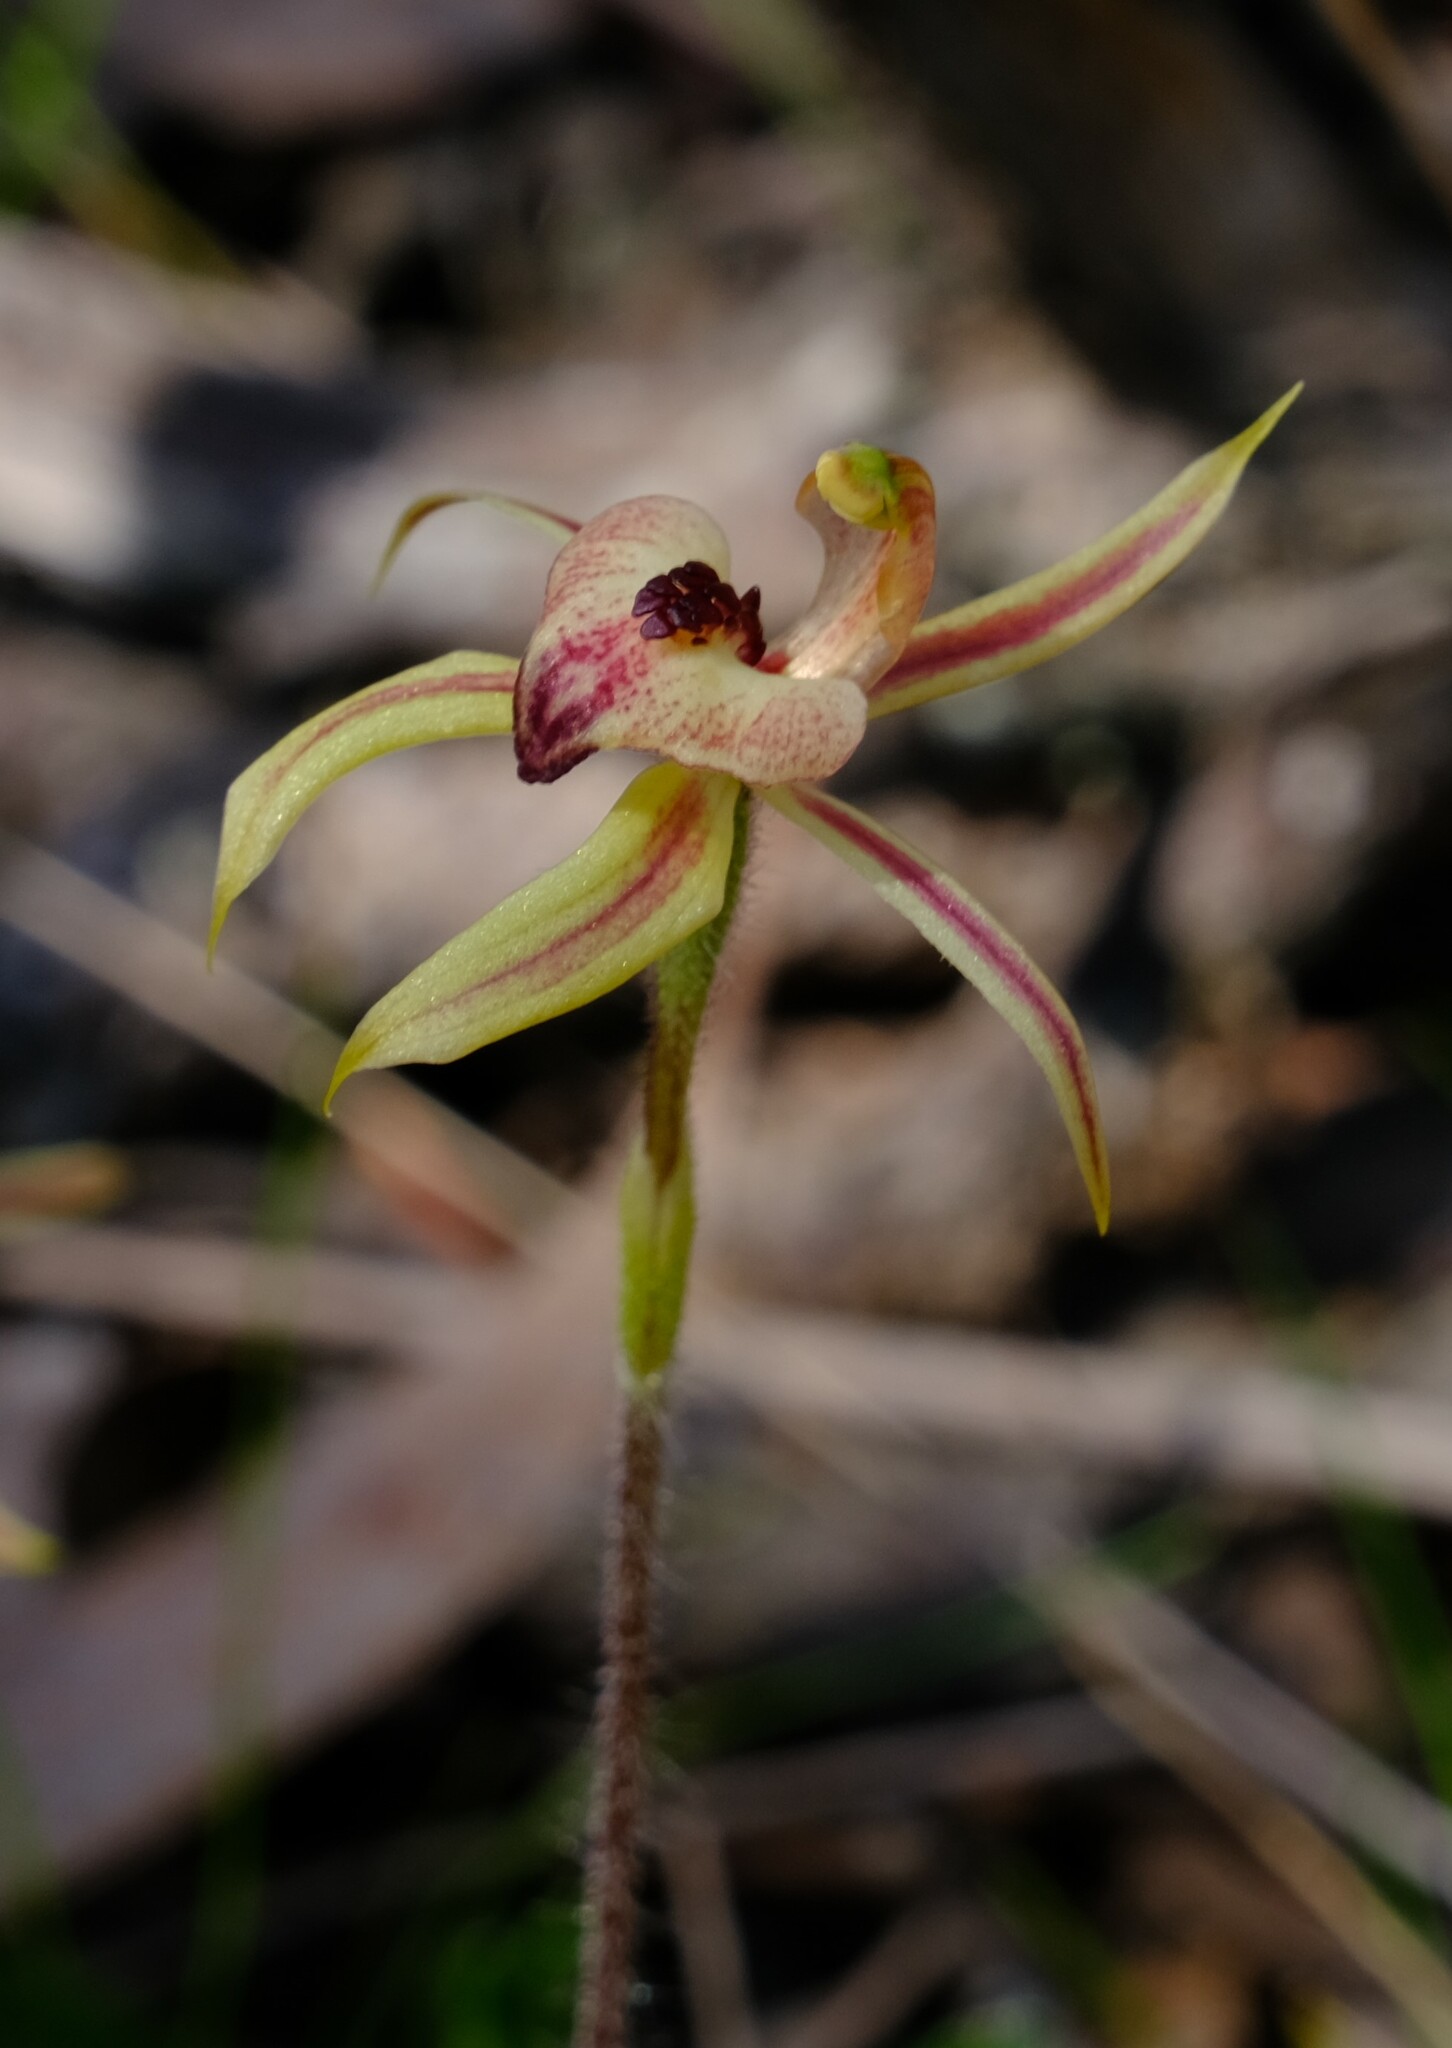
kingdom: Plantae
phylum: Tracheophyta
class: Liliopsida
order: Asparagales
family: Orchidaceae
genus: Caladenia
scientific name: Caladenia cardiochila
